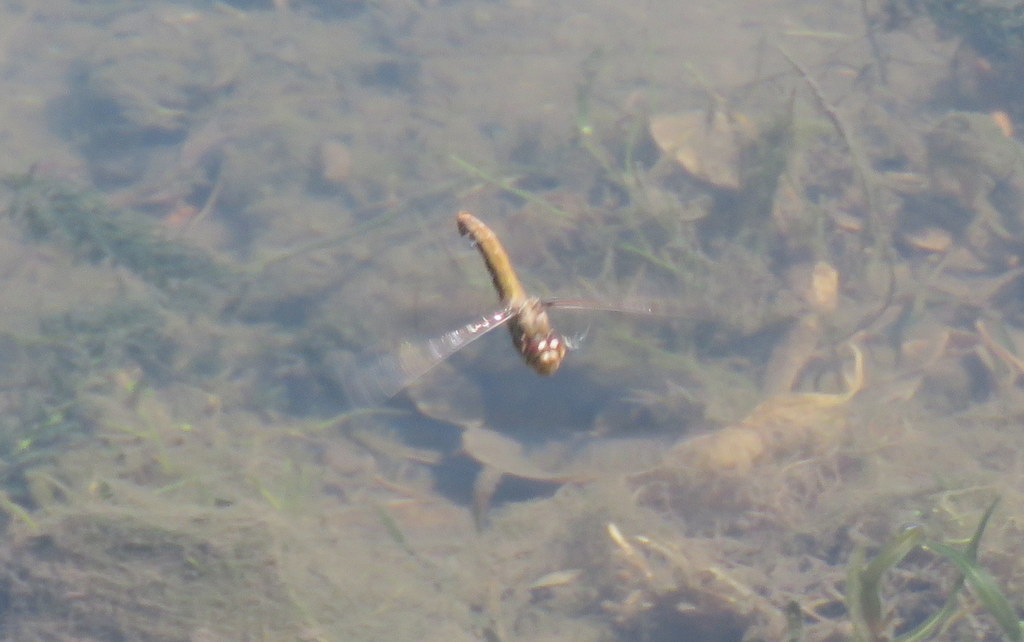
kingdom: Animalia
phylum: Arthropoda
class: Insecta
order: Odonata
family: Libellulidae
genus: Orthemis
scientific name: Orthemis nodiplaga
